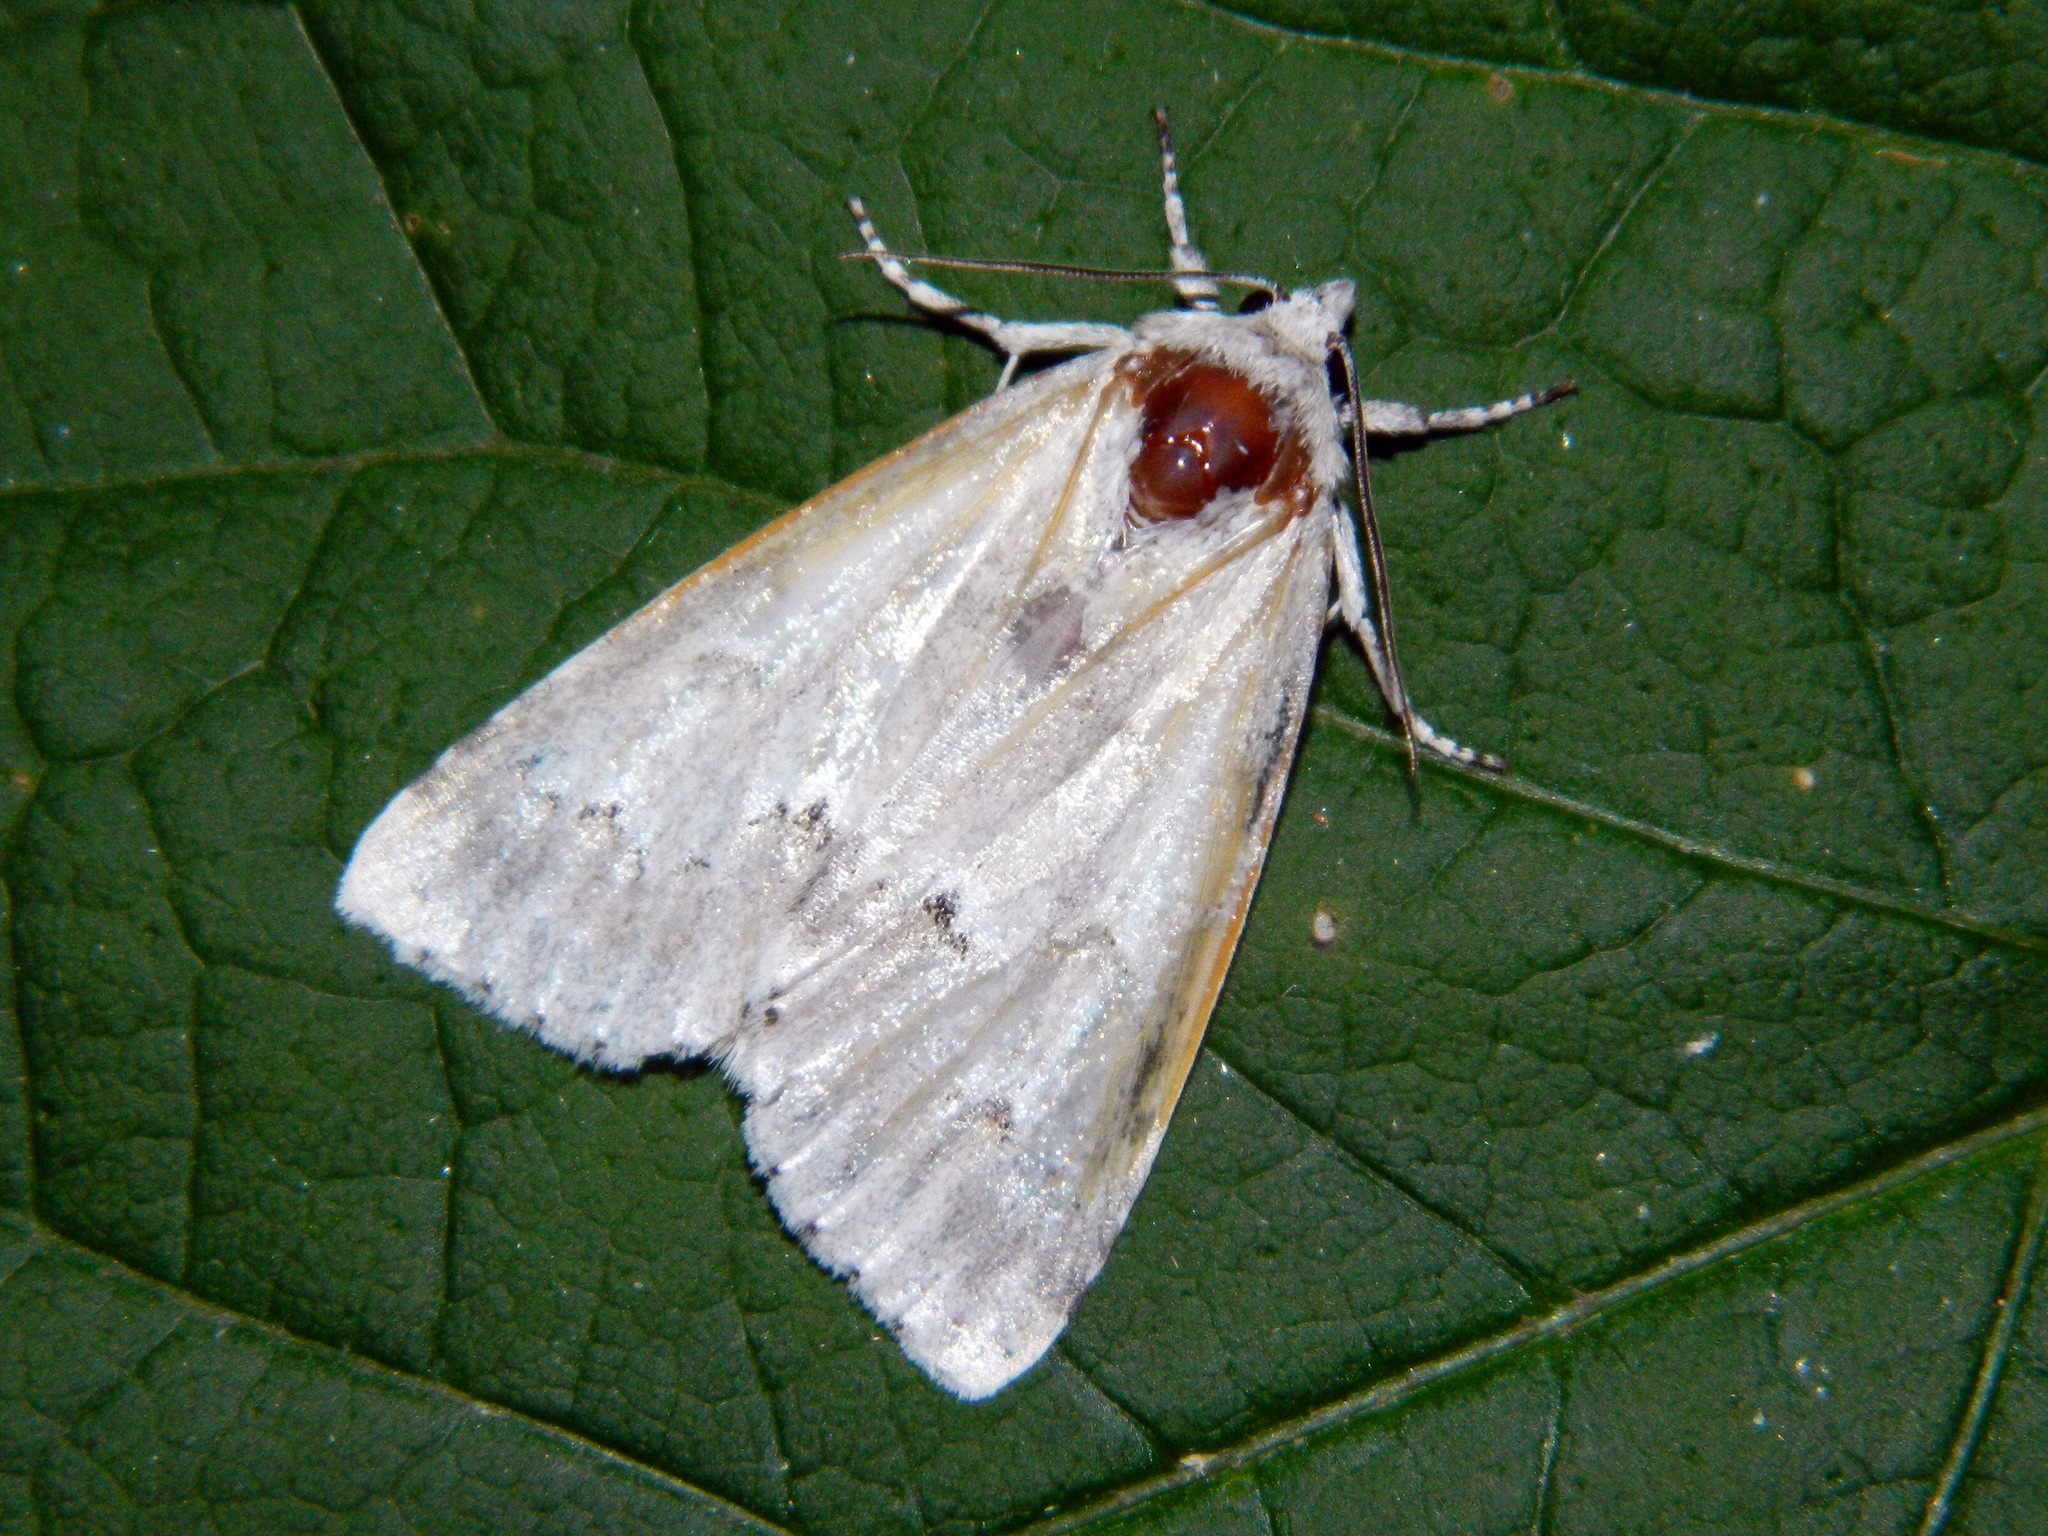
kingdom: Animalia
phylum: Arthropoda
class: Insecta
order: Lepidoptera
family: Noctuidae
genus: Acronicta
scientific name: Acronicta innotata
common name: Unmarked dagger
